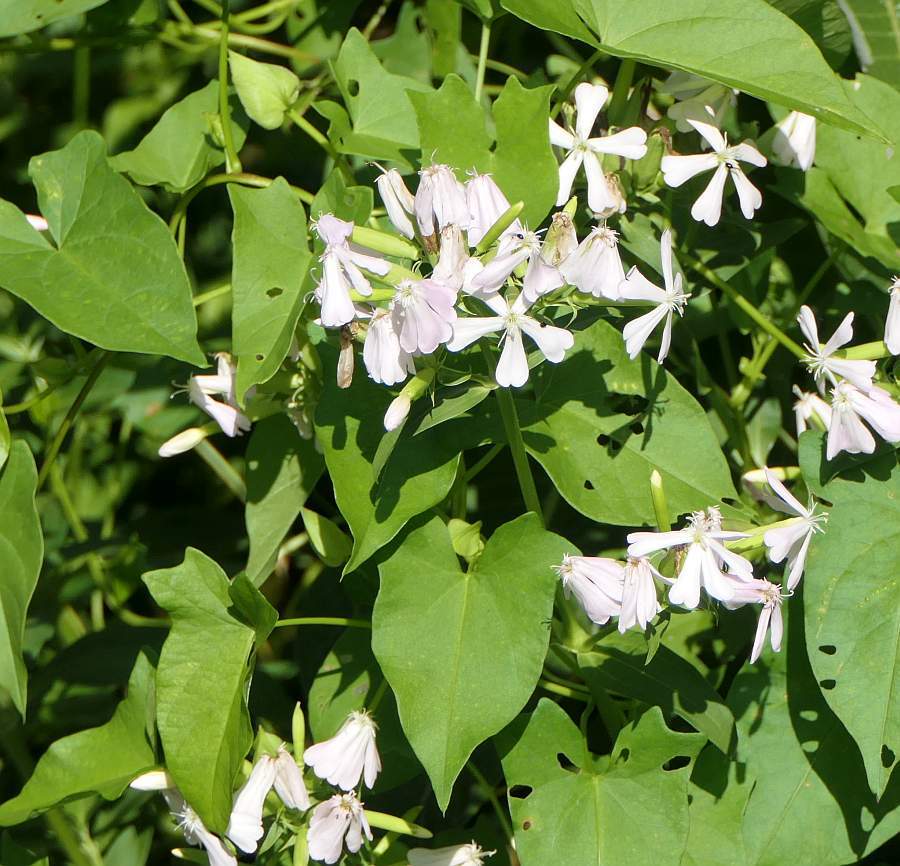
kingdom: Plantae
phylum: Tracheophyta
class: Magnoliopsida
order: Caryophyllales
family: Caryophyllaceae
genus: Saponaria
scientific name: Saponaria officinalis
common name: Soapwort
